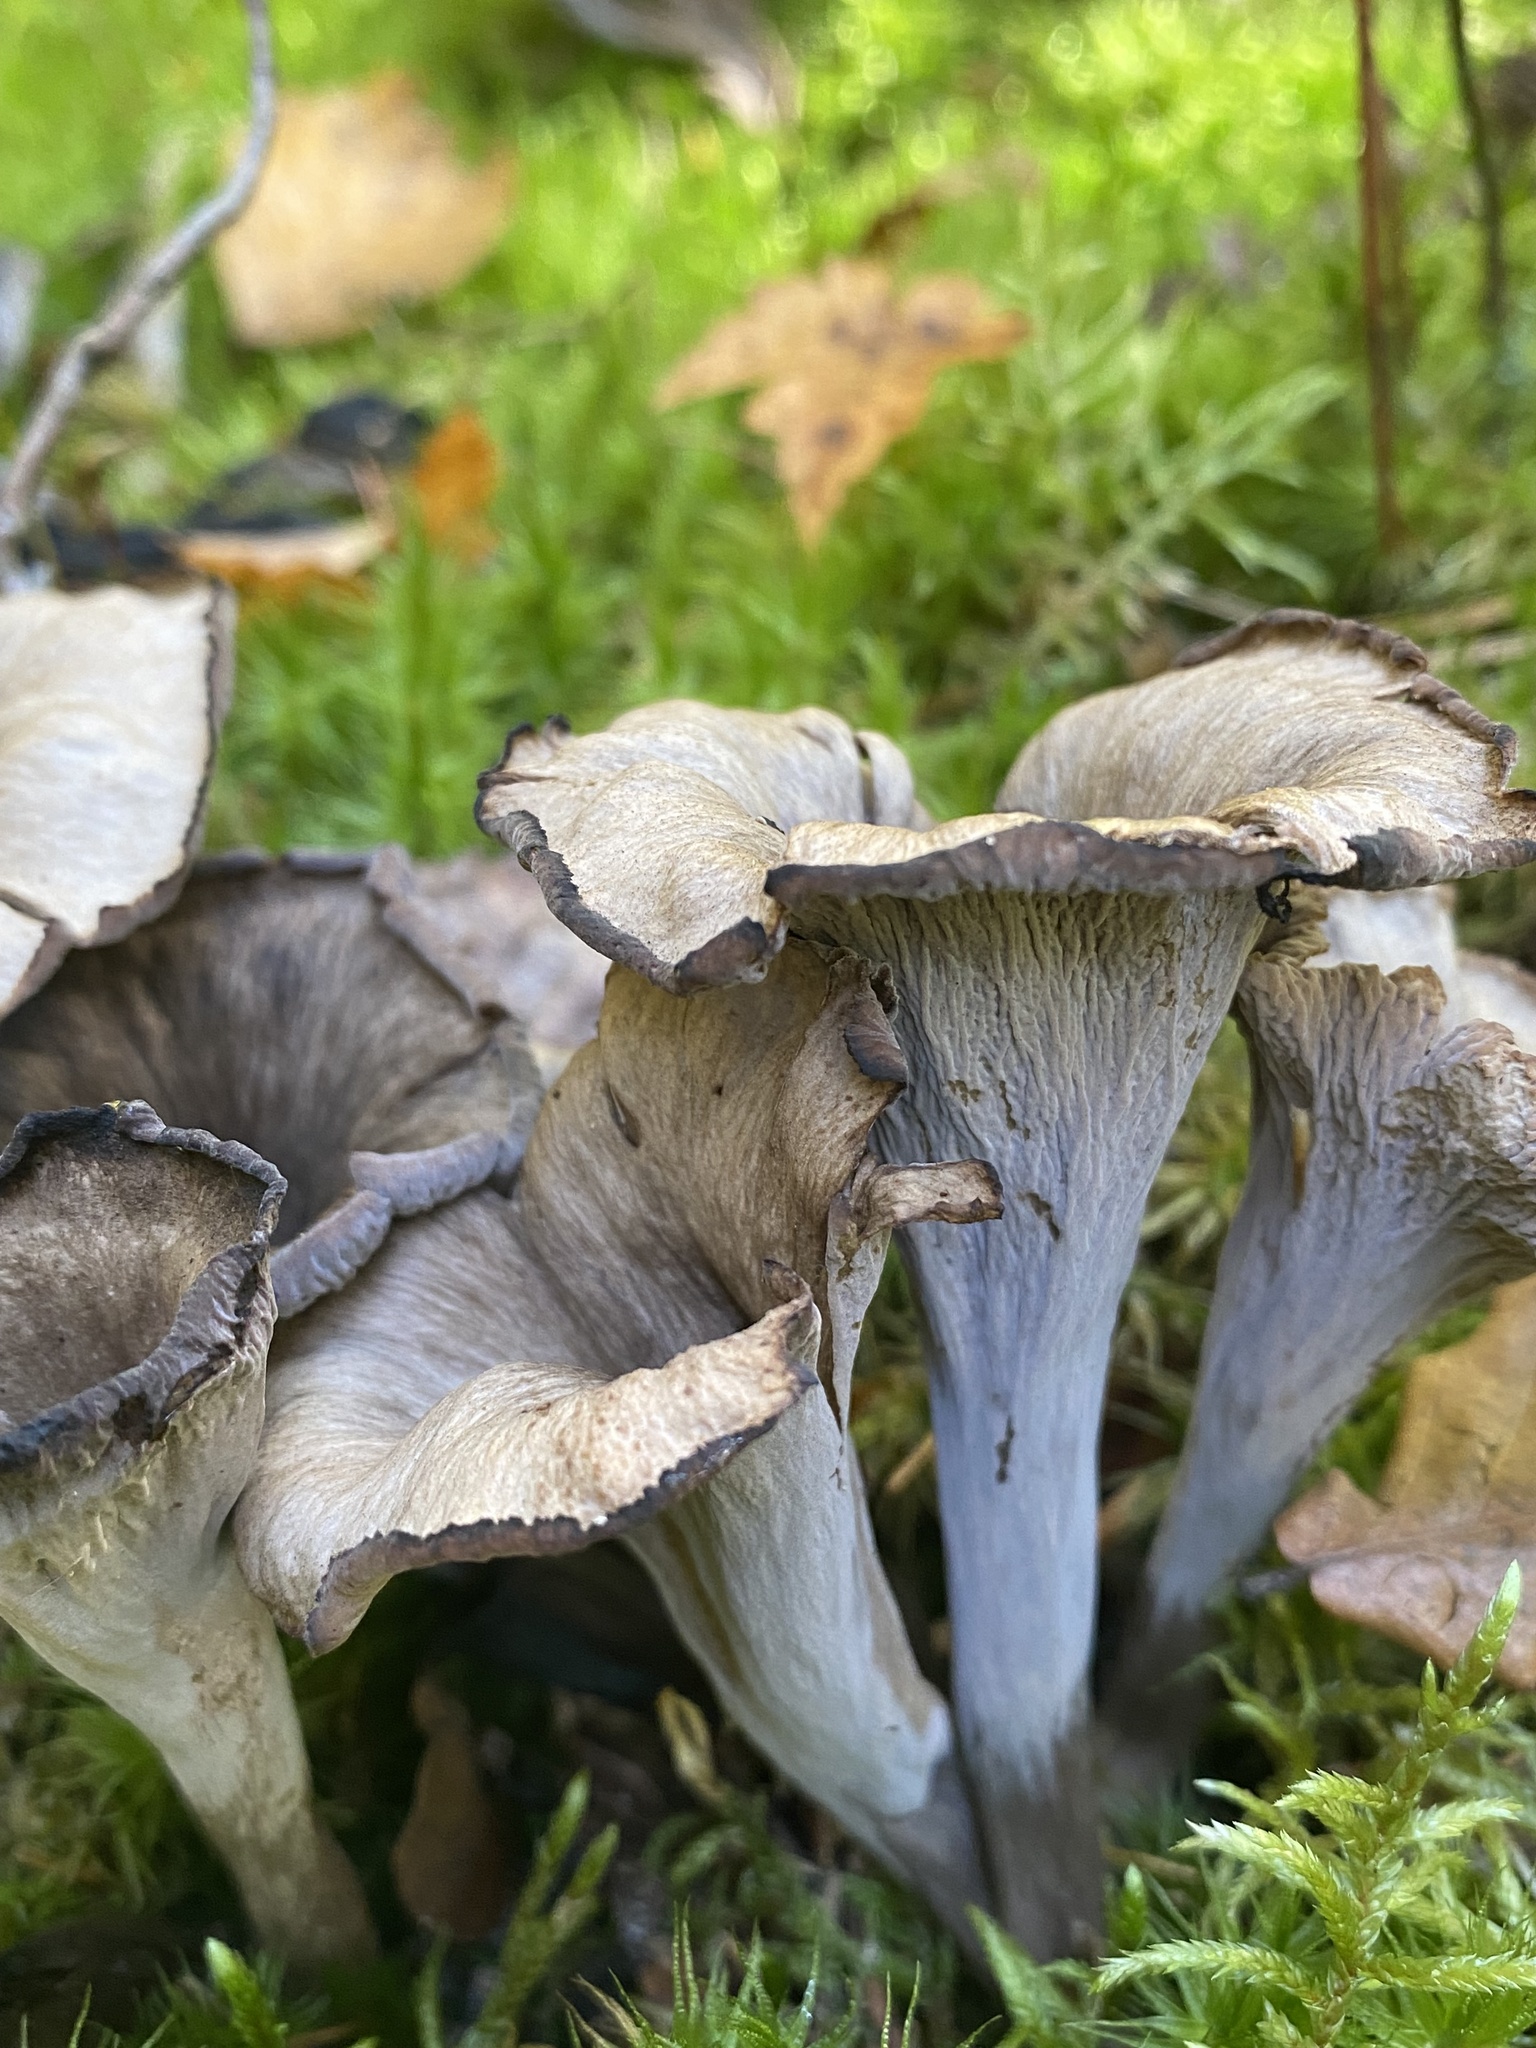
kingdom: Fungi
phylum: Basidiomycota
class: Agaricomycetes
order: Cantharellales
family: Hydnaceae
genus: Craterellus
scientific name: Craterellus cornucopioides
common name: Horn of plenty
